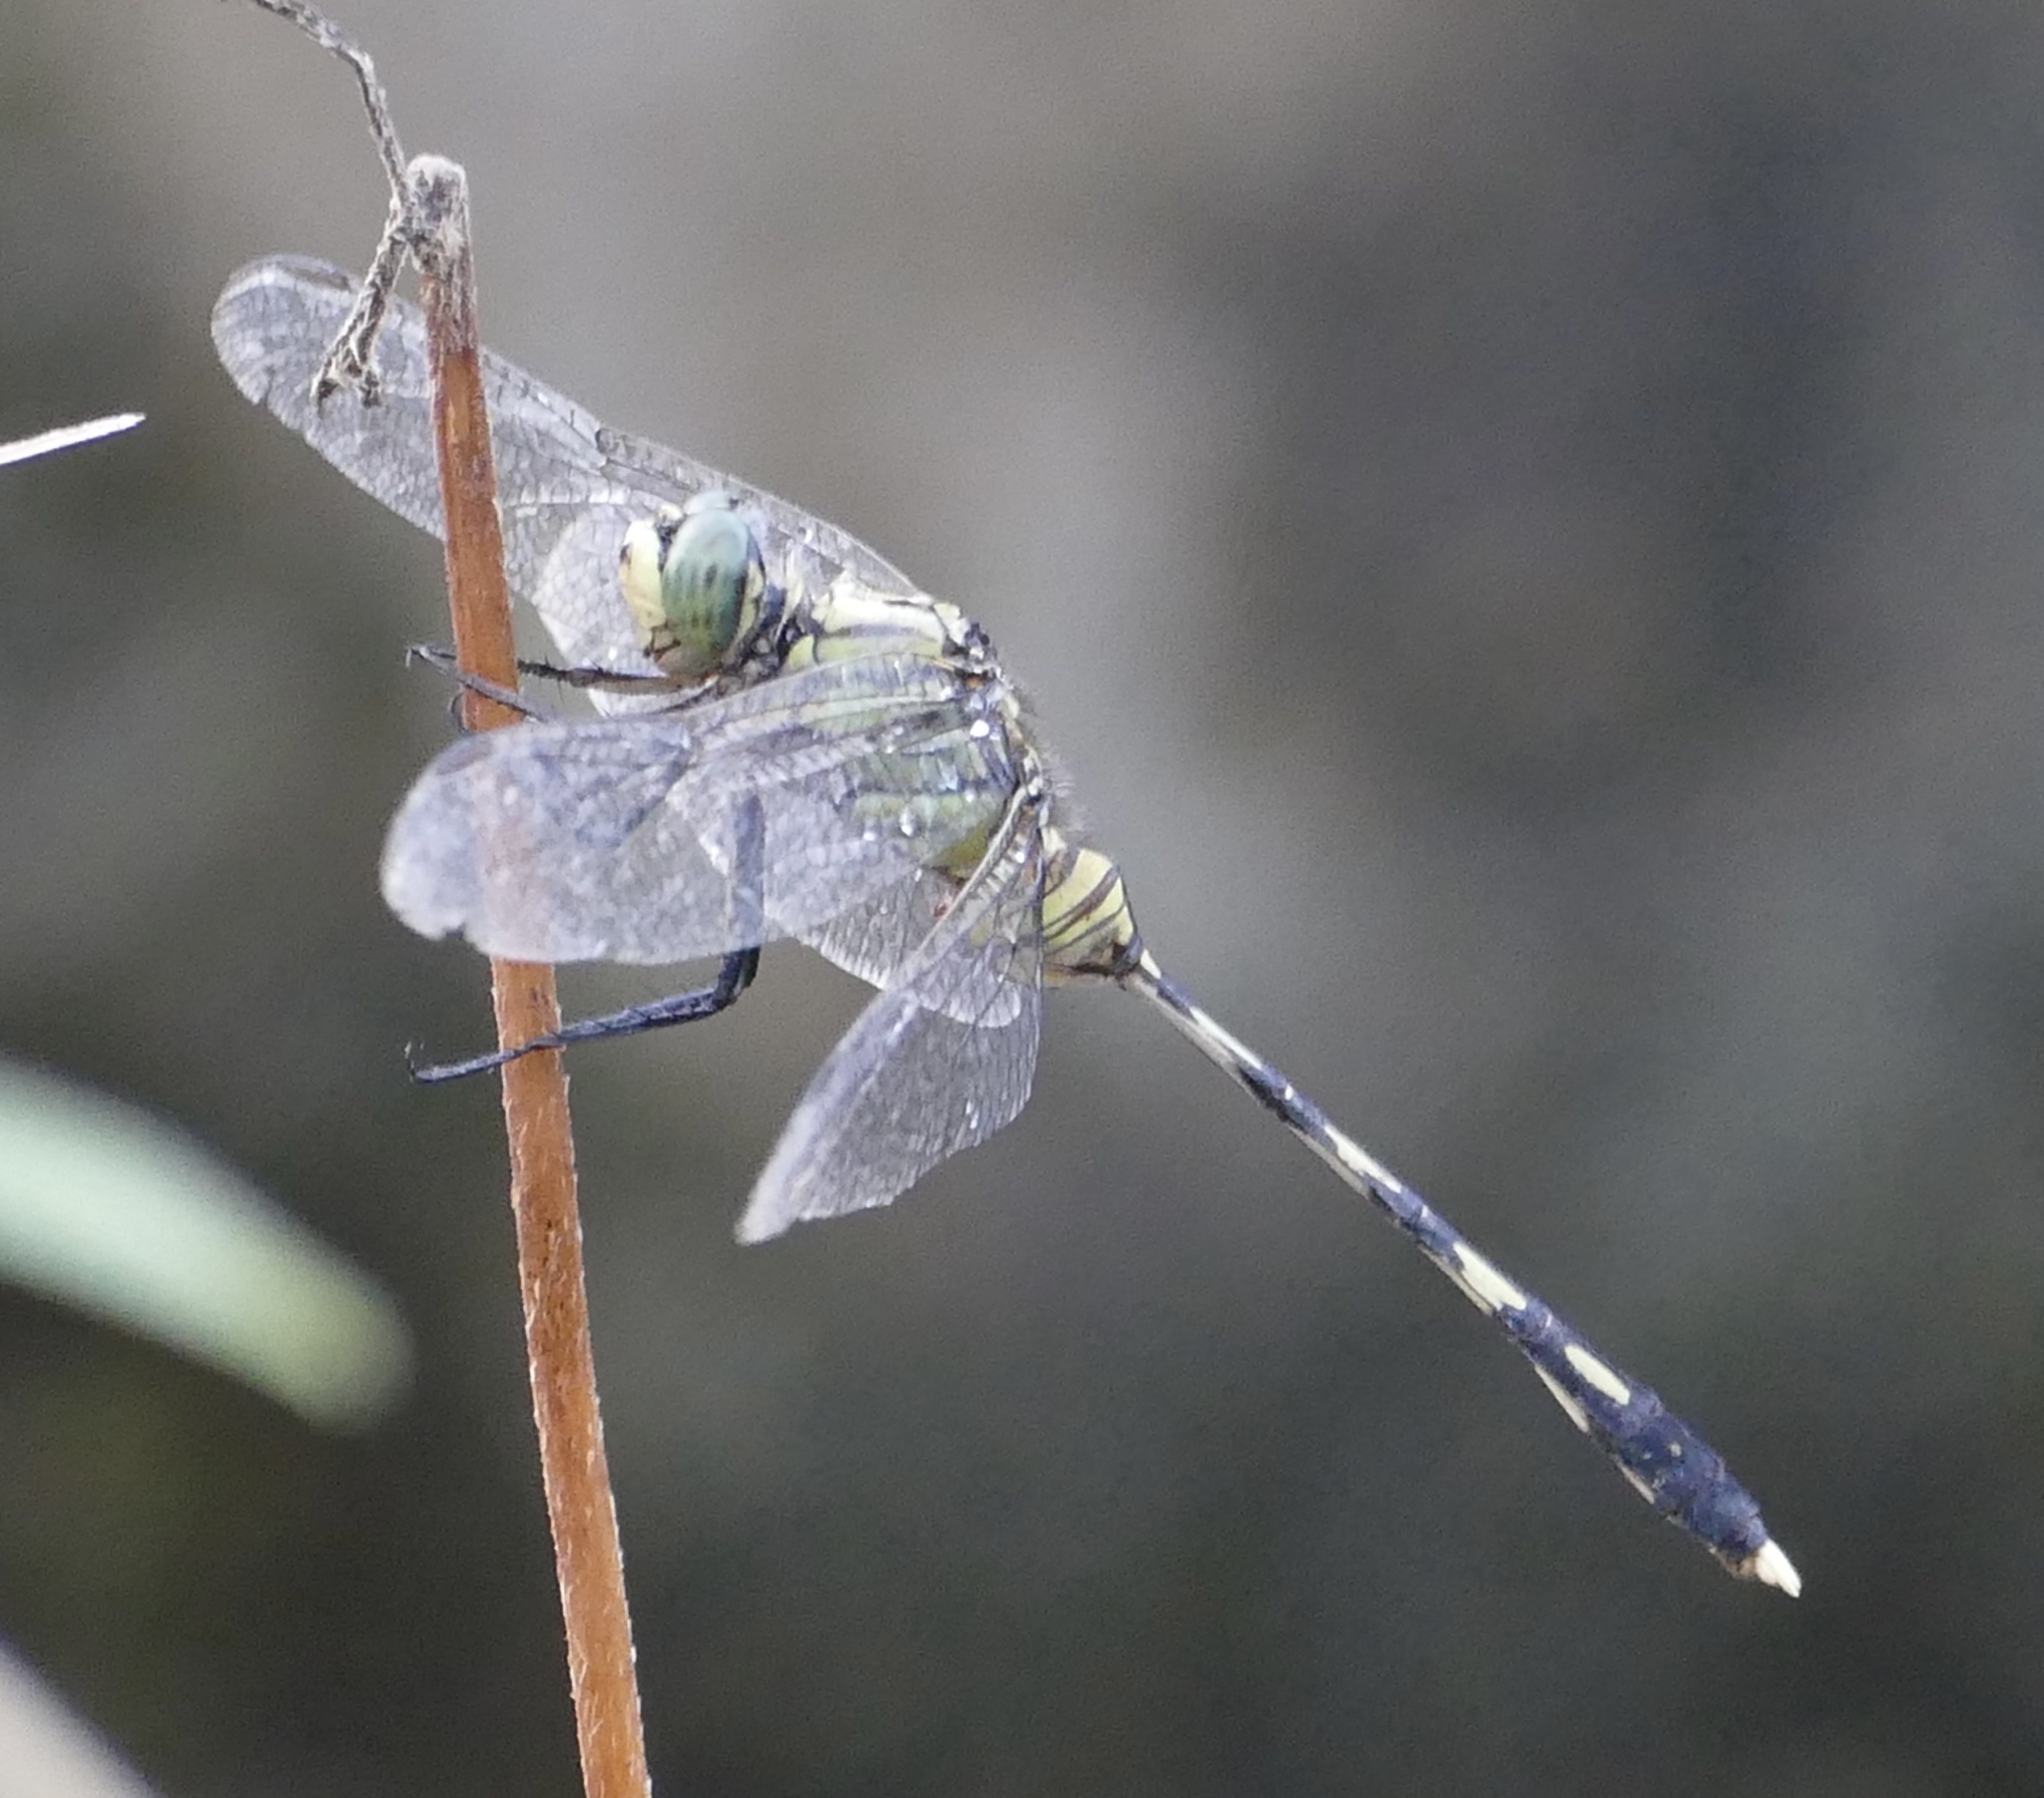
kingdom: Animalia
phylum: Arthropoda
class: Insecta
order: Odonata
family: Libellulidae
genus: Orthetrum
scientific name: Orthetrum serapia
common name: Green skimmer
